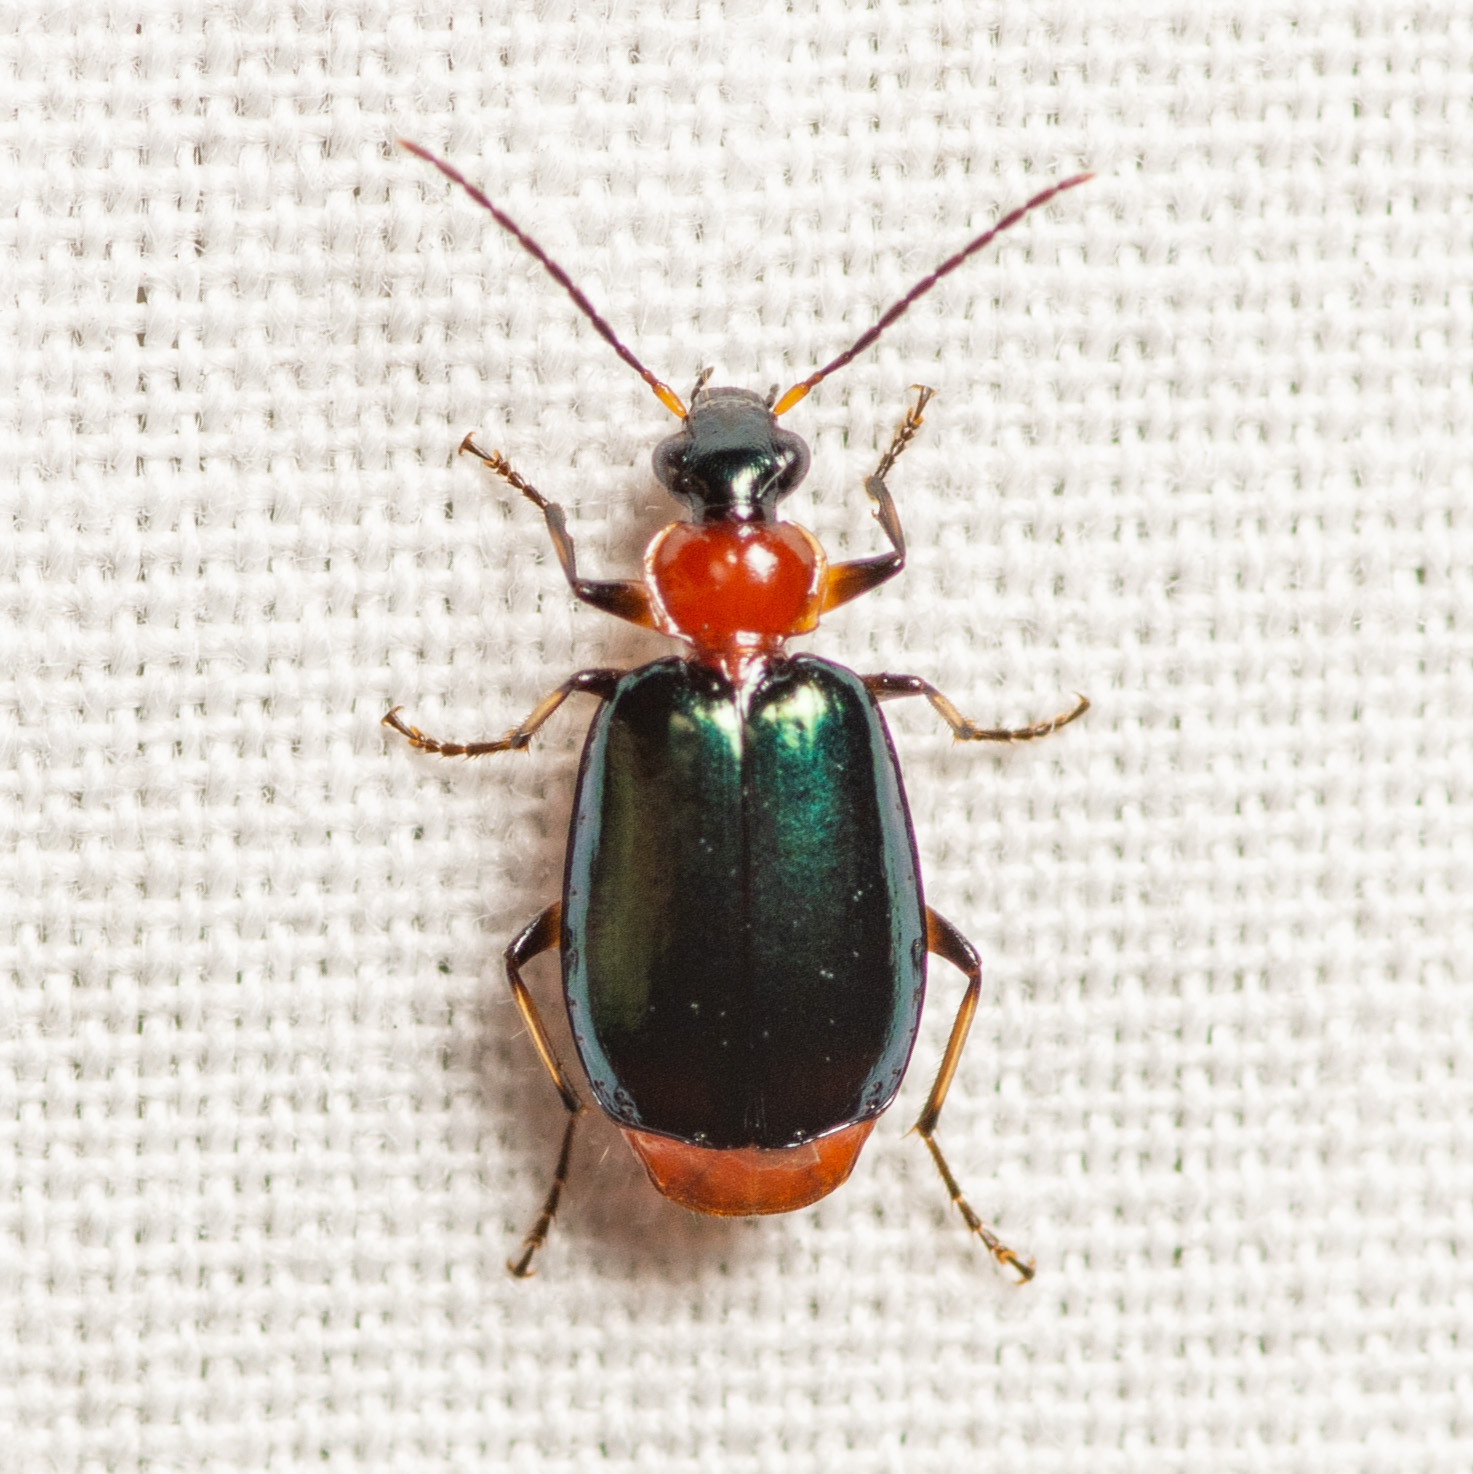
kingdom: Animalia
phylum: Arthropoda
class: Insecta
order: Coleoptera
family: Carabidae
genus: Lebia
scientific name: Lebia viridipennis
